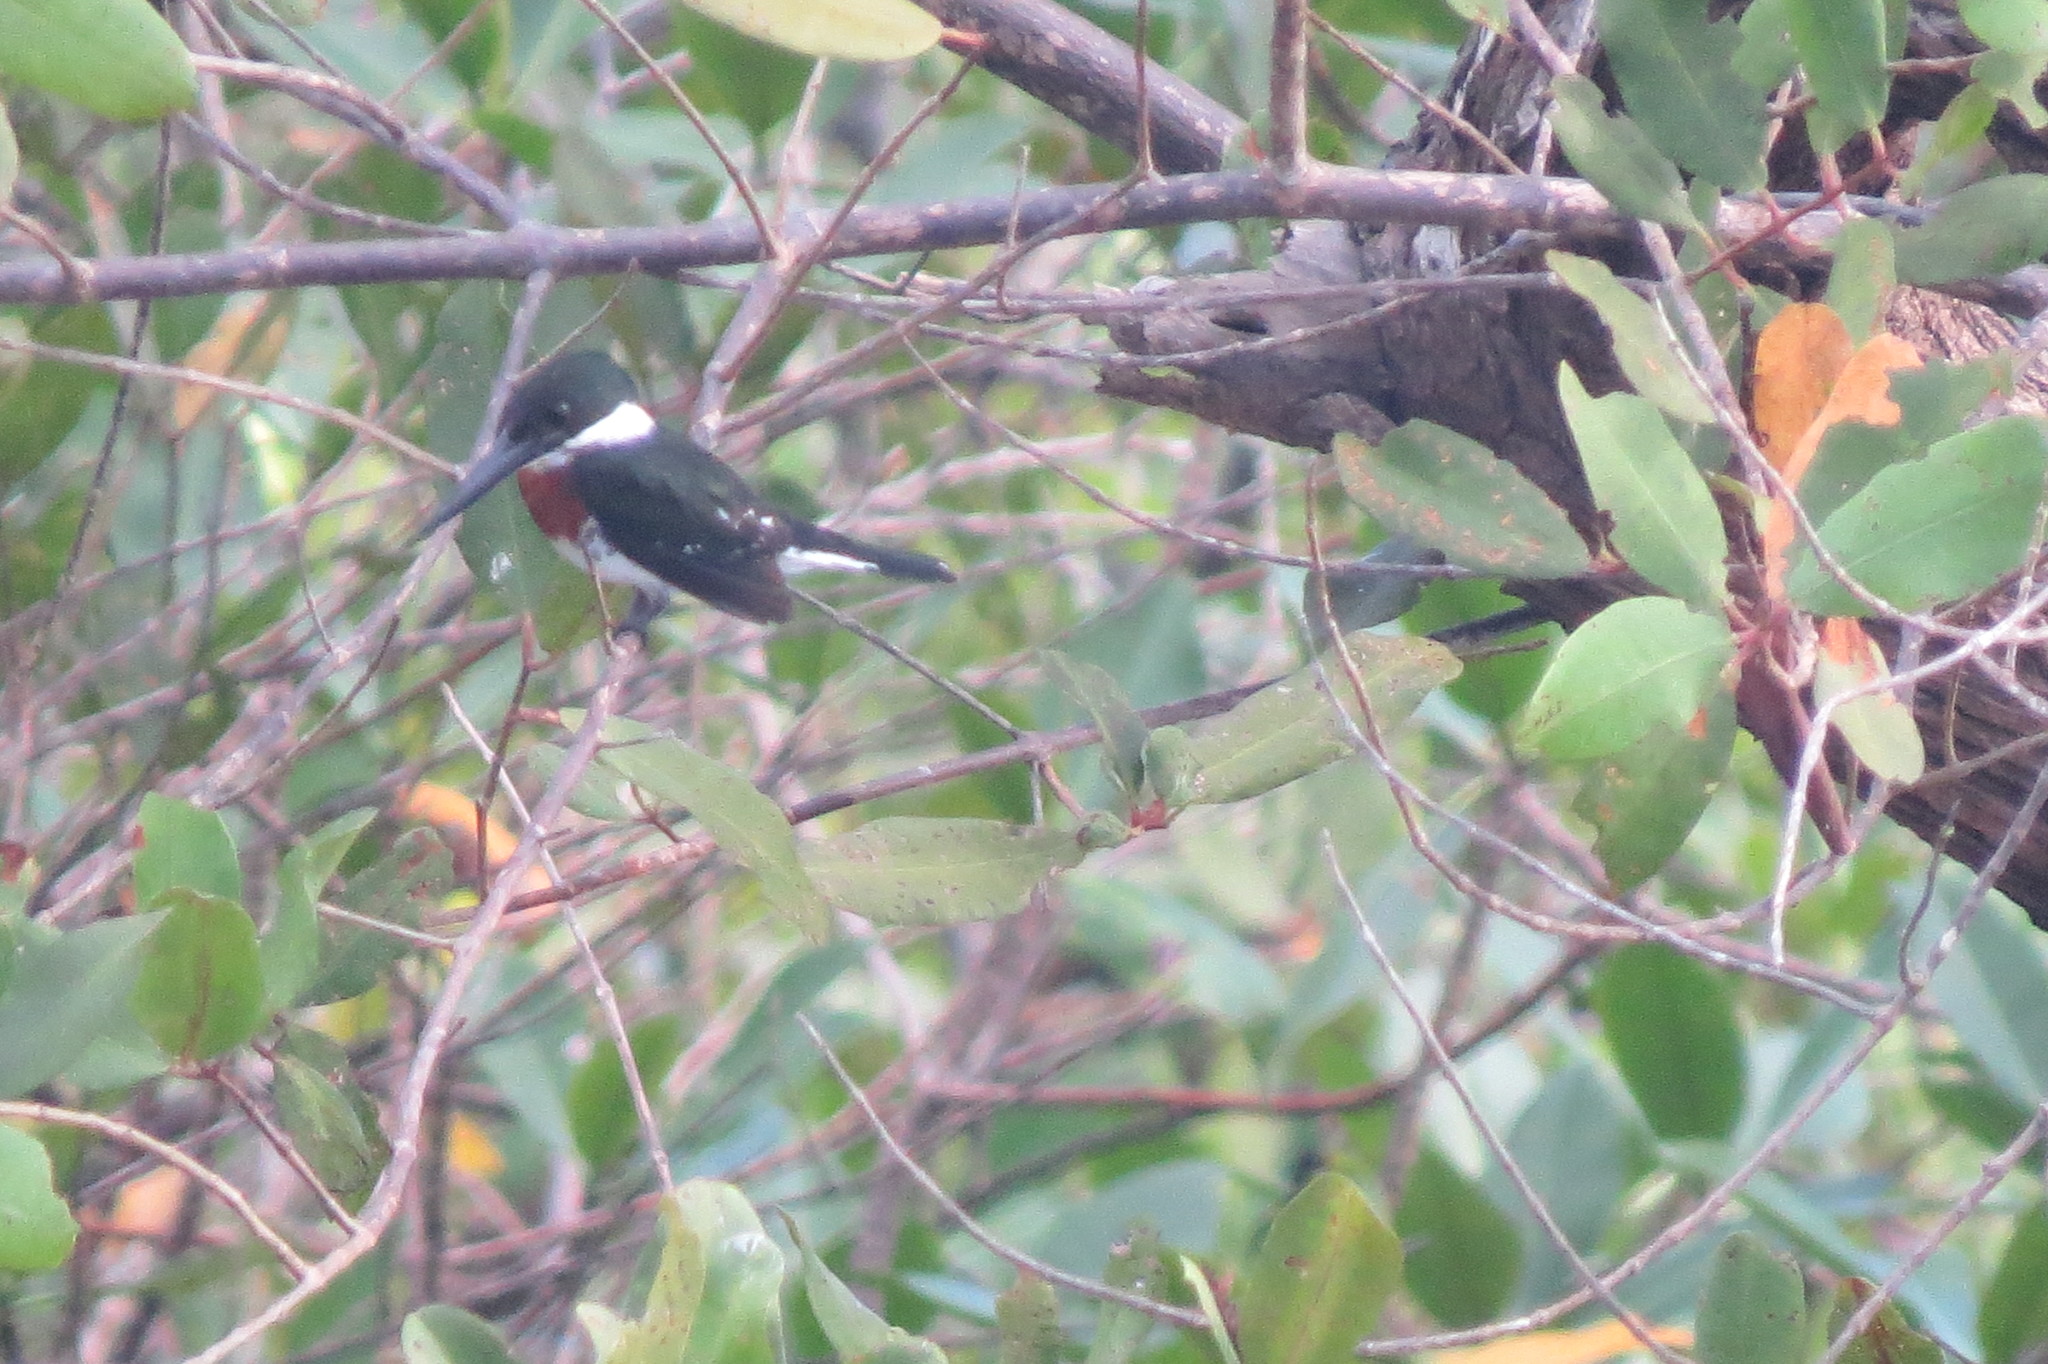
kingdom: Animalia
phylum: Chordata
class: Aves
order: Coraciiformes
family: Alcedinidae
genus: Chloroceryle
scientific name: Chloroceryle americana
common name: Green kingfisher
